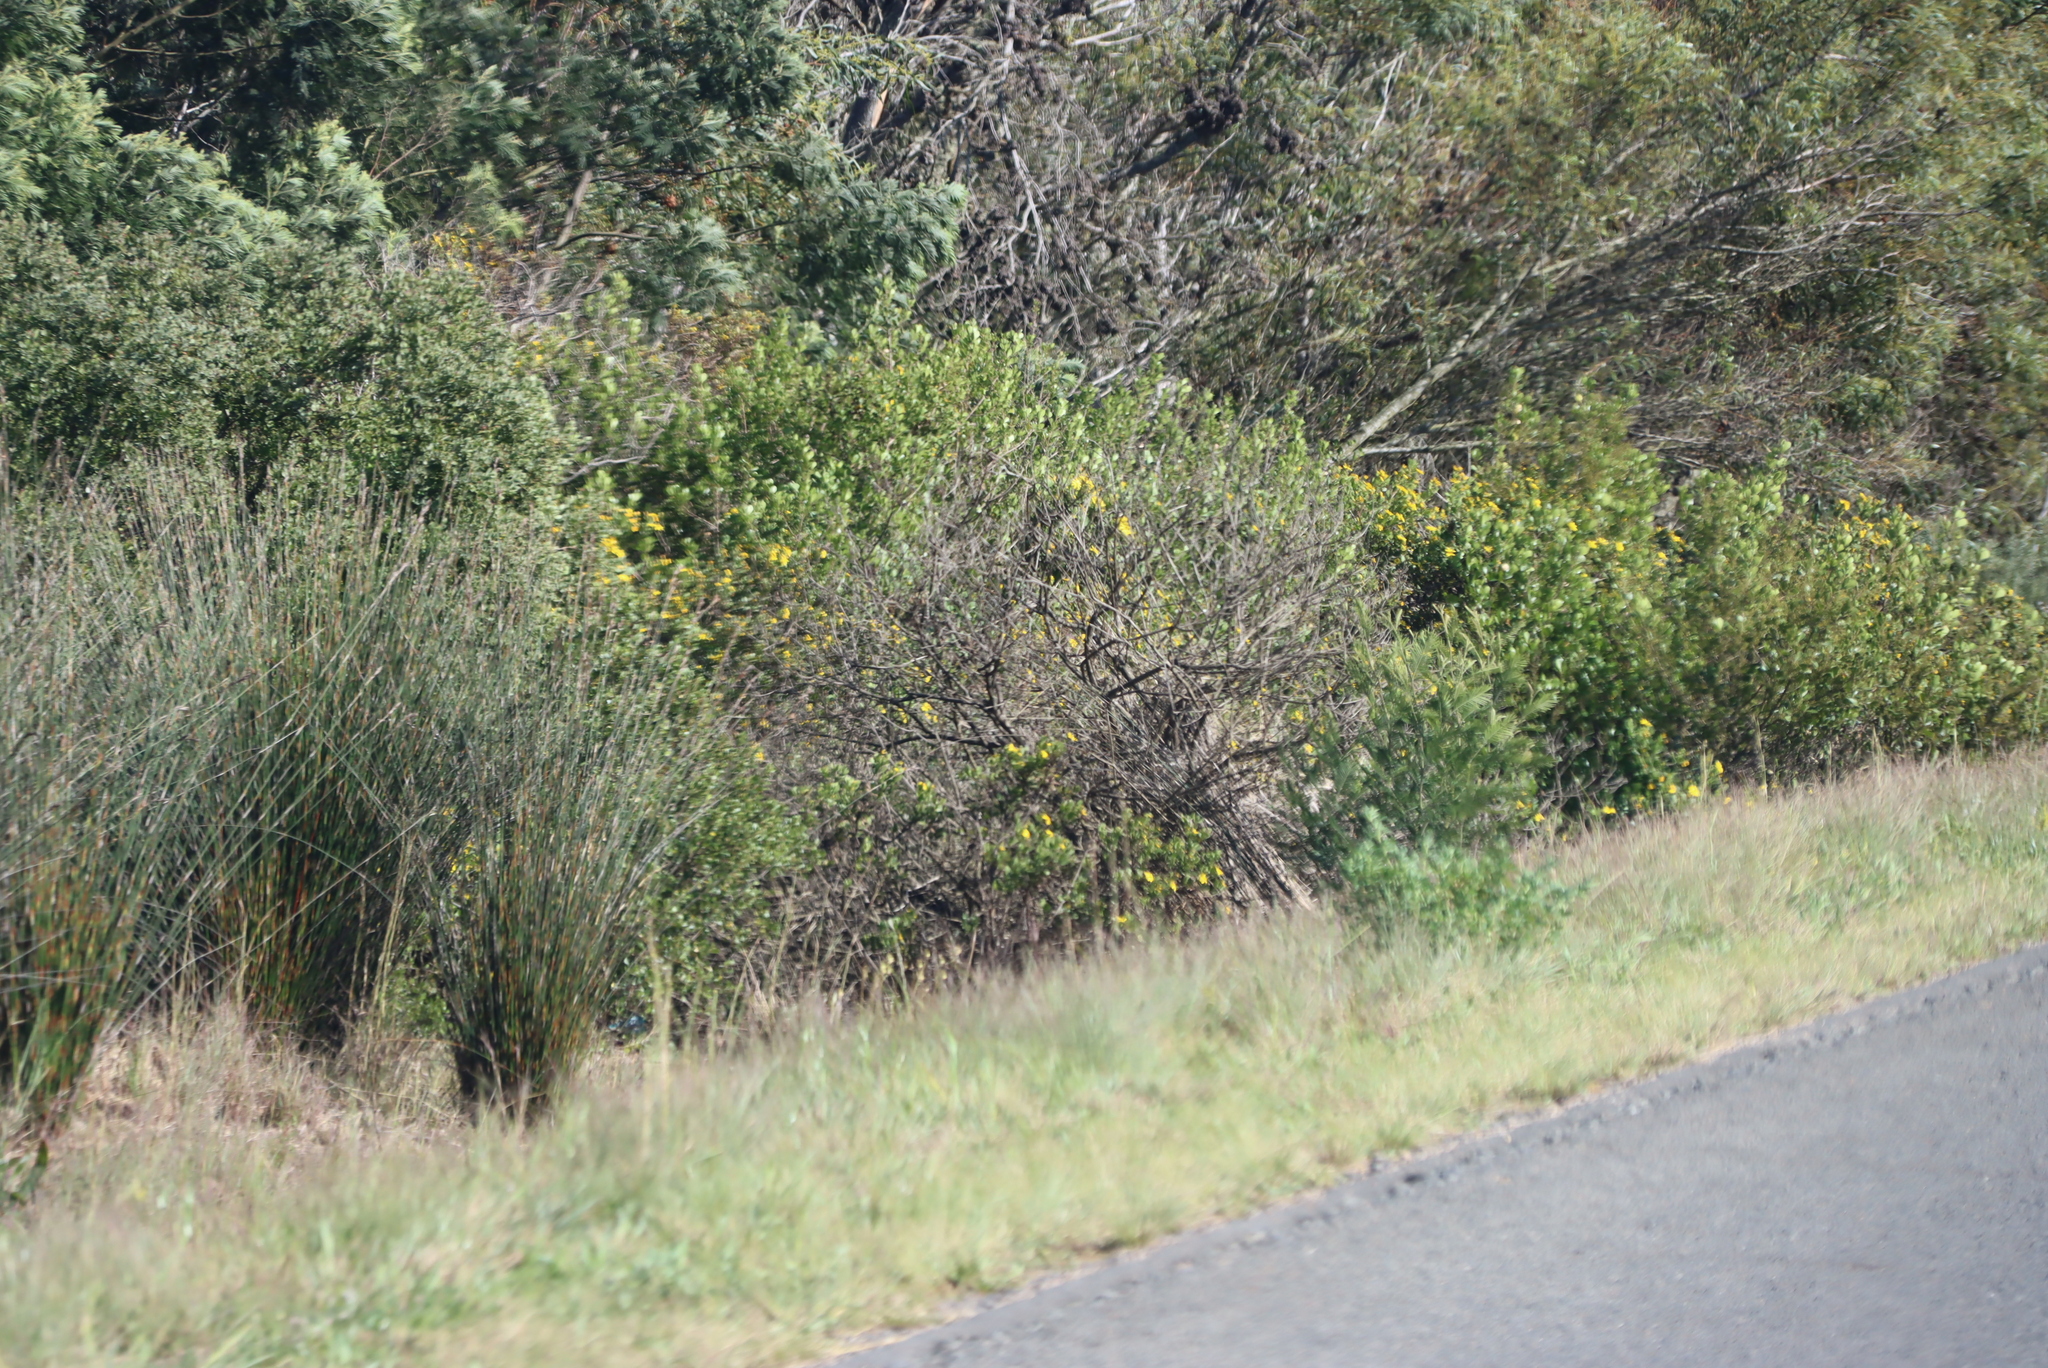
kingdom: Plantae
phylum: Tracheophyta
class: Magnoliopsida
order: Asterales
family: Asteraceae
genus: Osteospermum
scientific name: Osteospermum moniliferum
